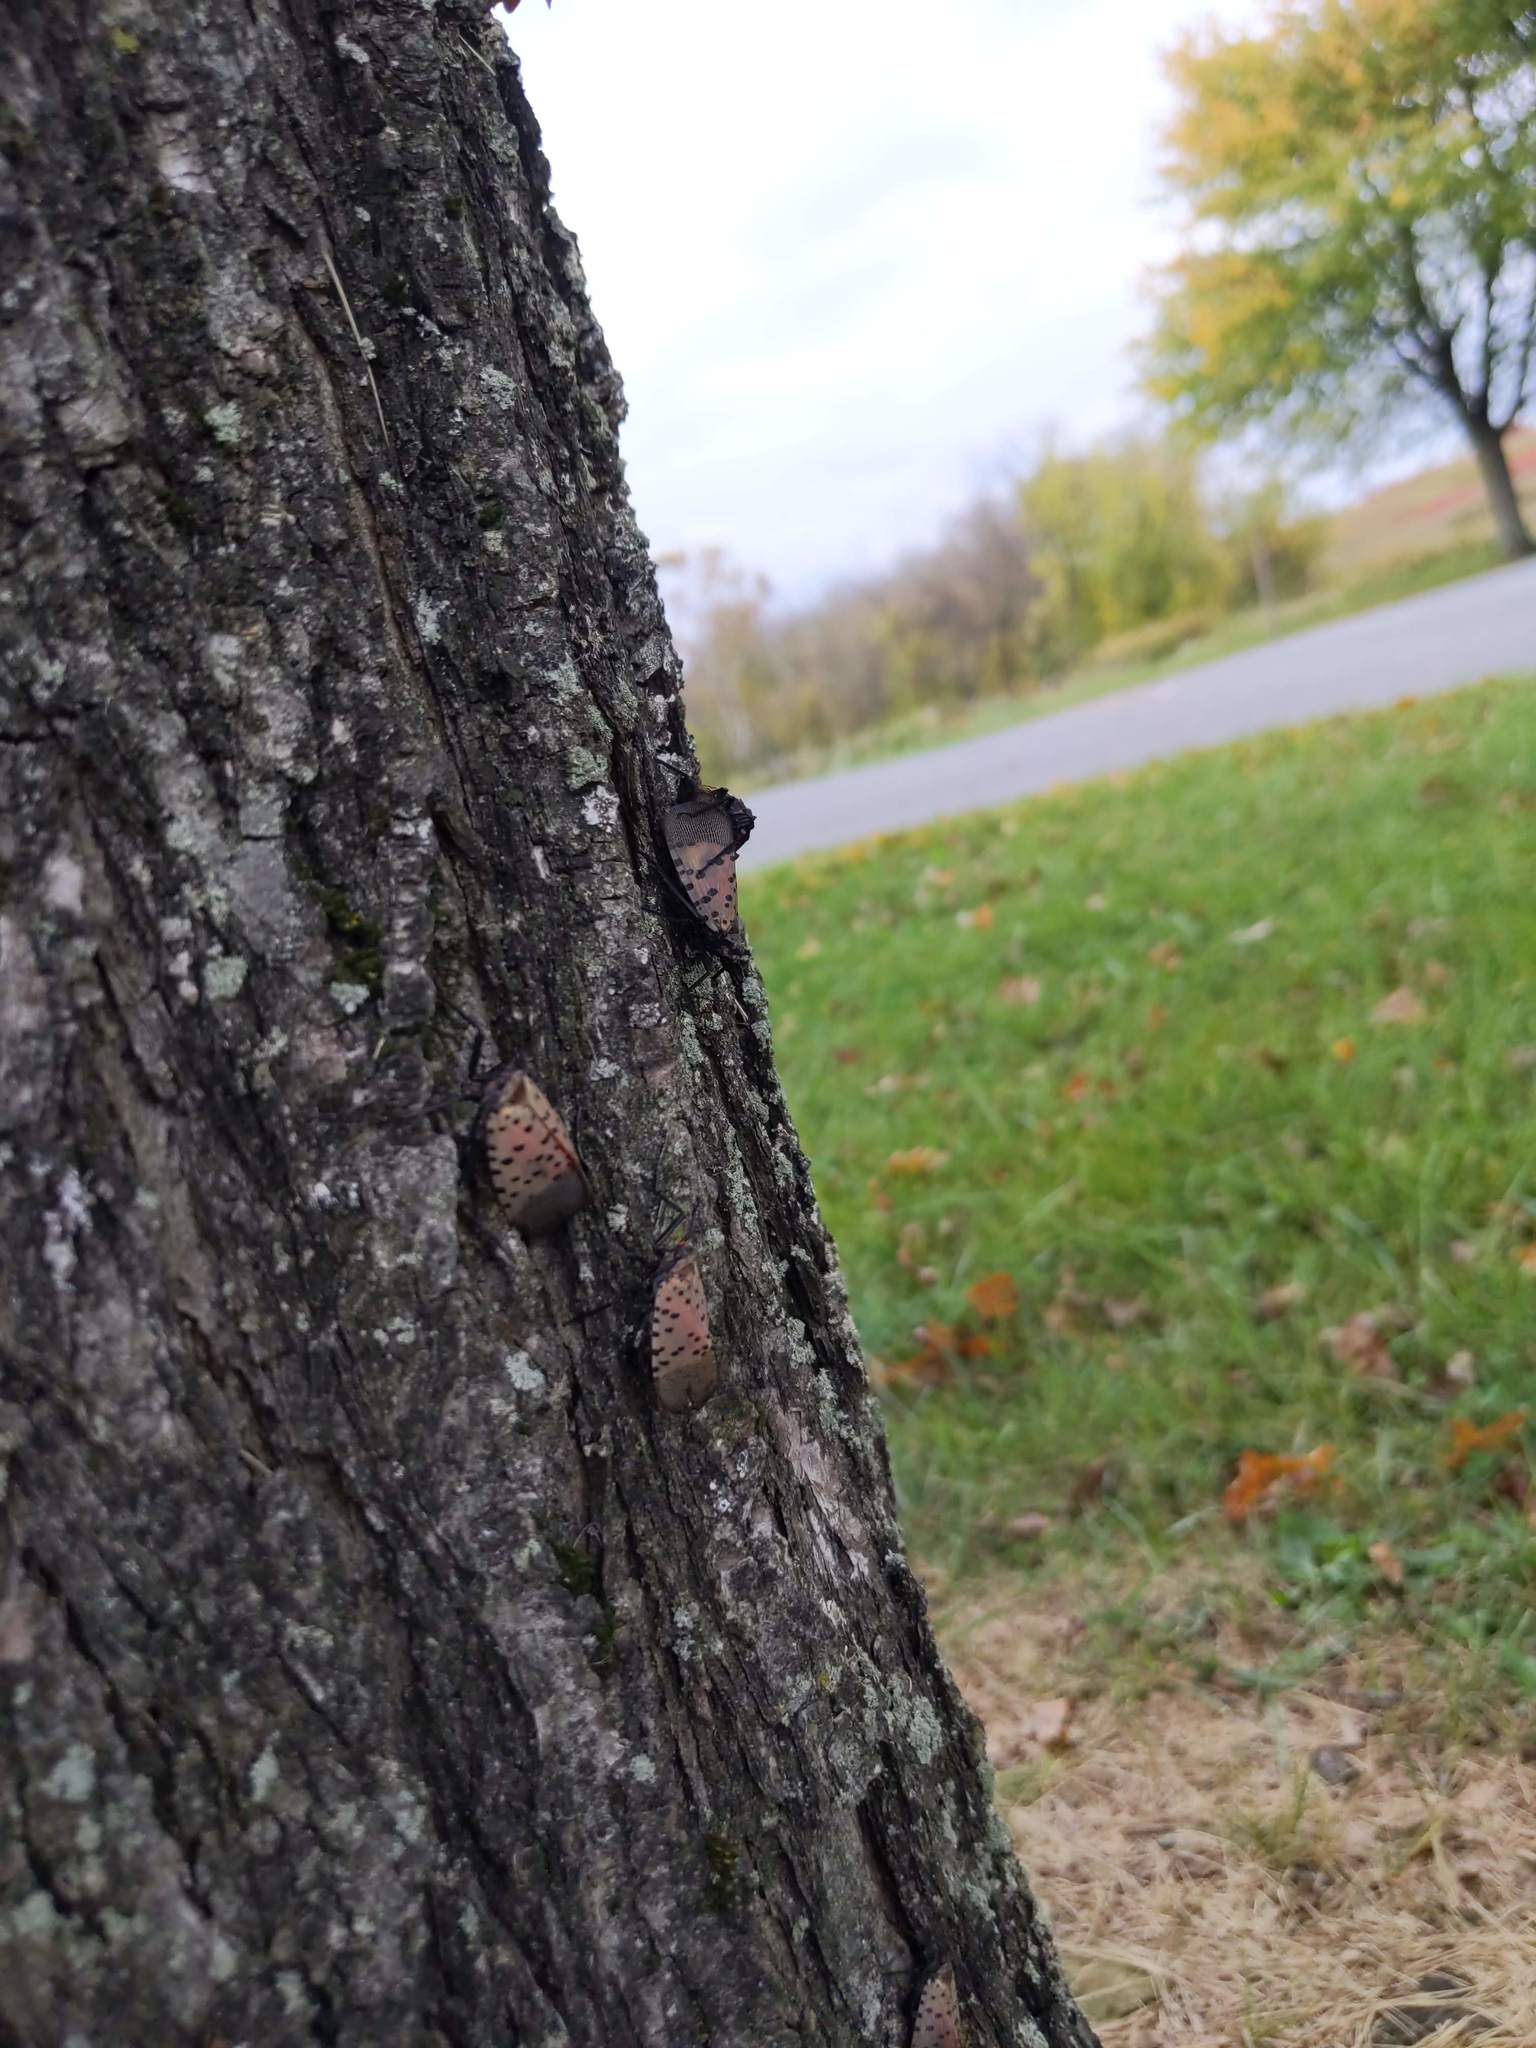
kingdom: Animalia
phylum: Arthropoda
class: Insecta
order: Hemiptera
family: Fulgoridae
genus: Lycorma
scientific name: Lycorma delicatula
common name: Spotted lanternfly
